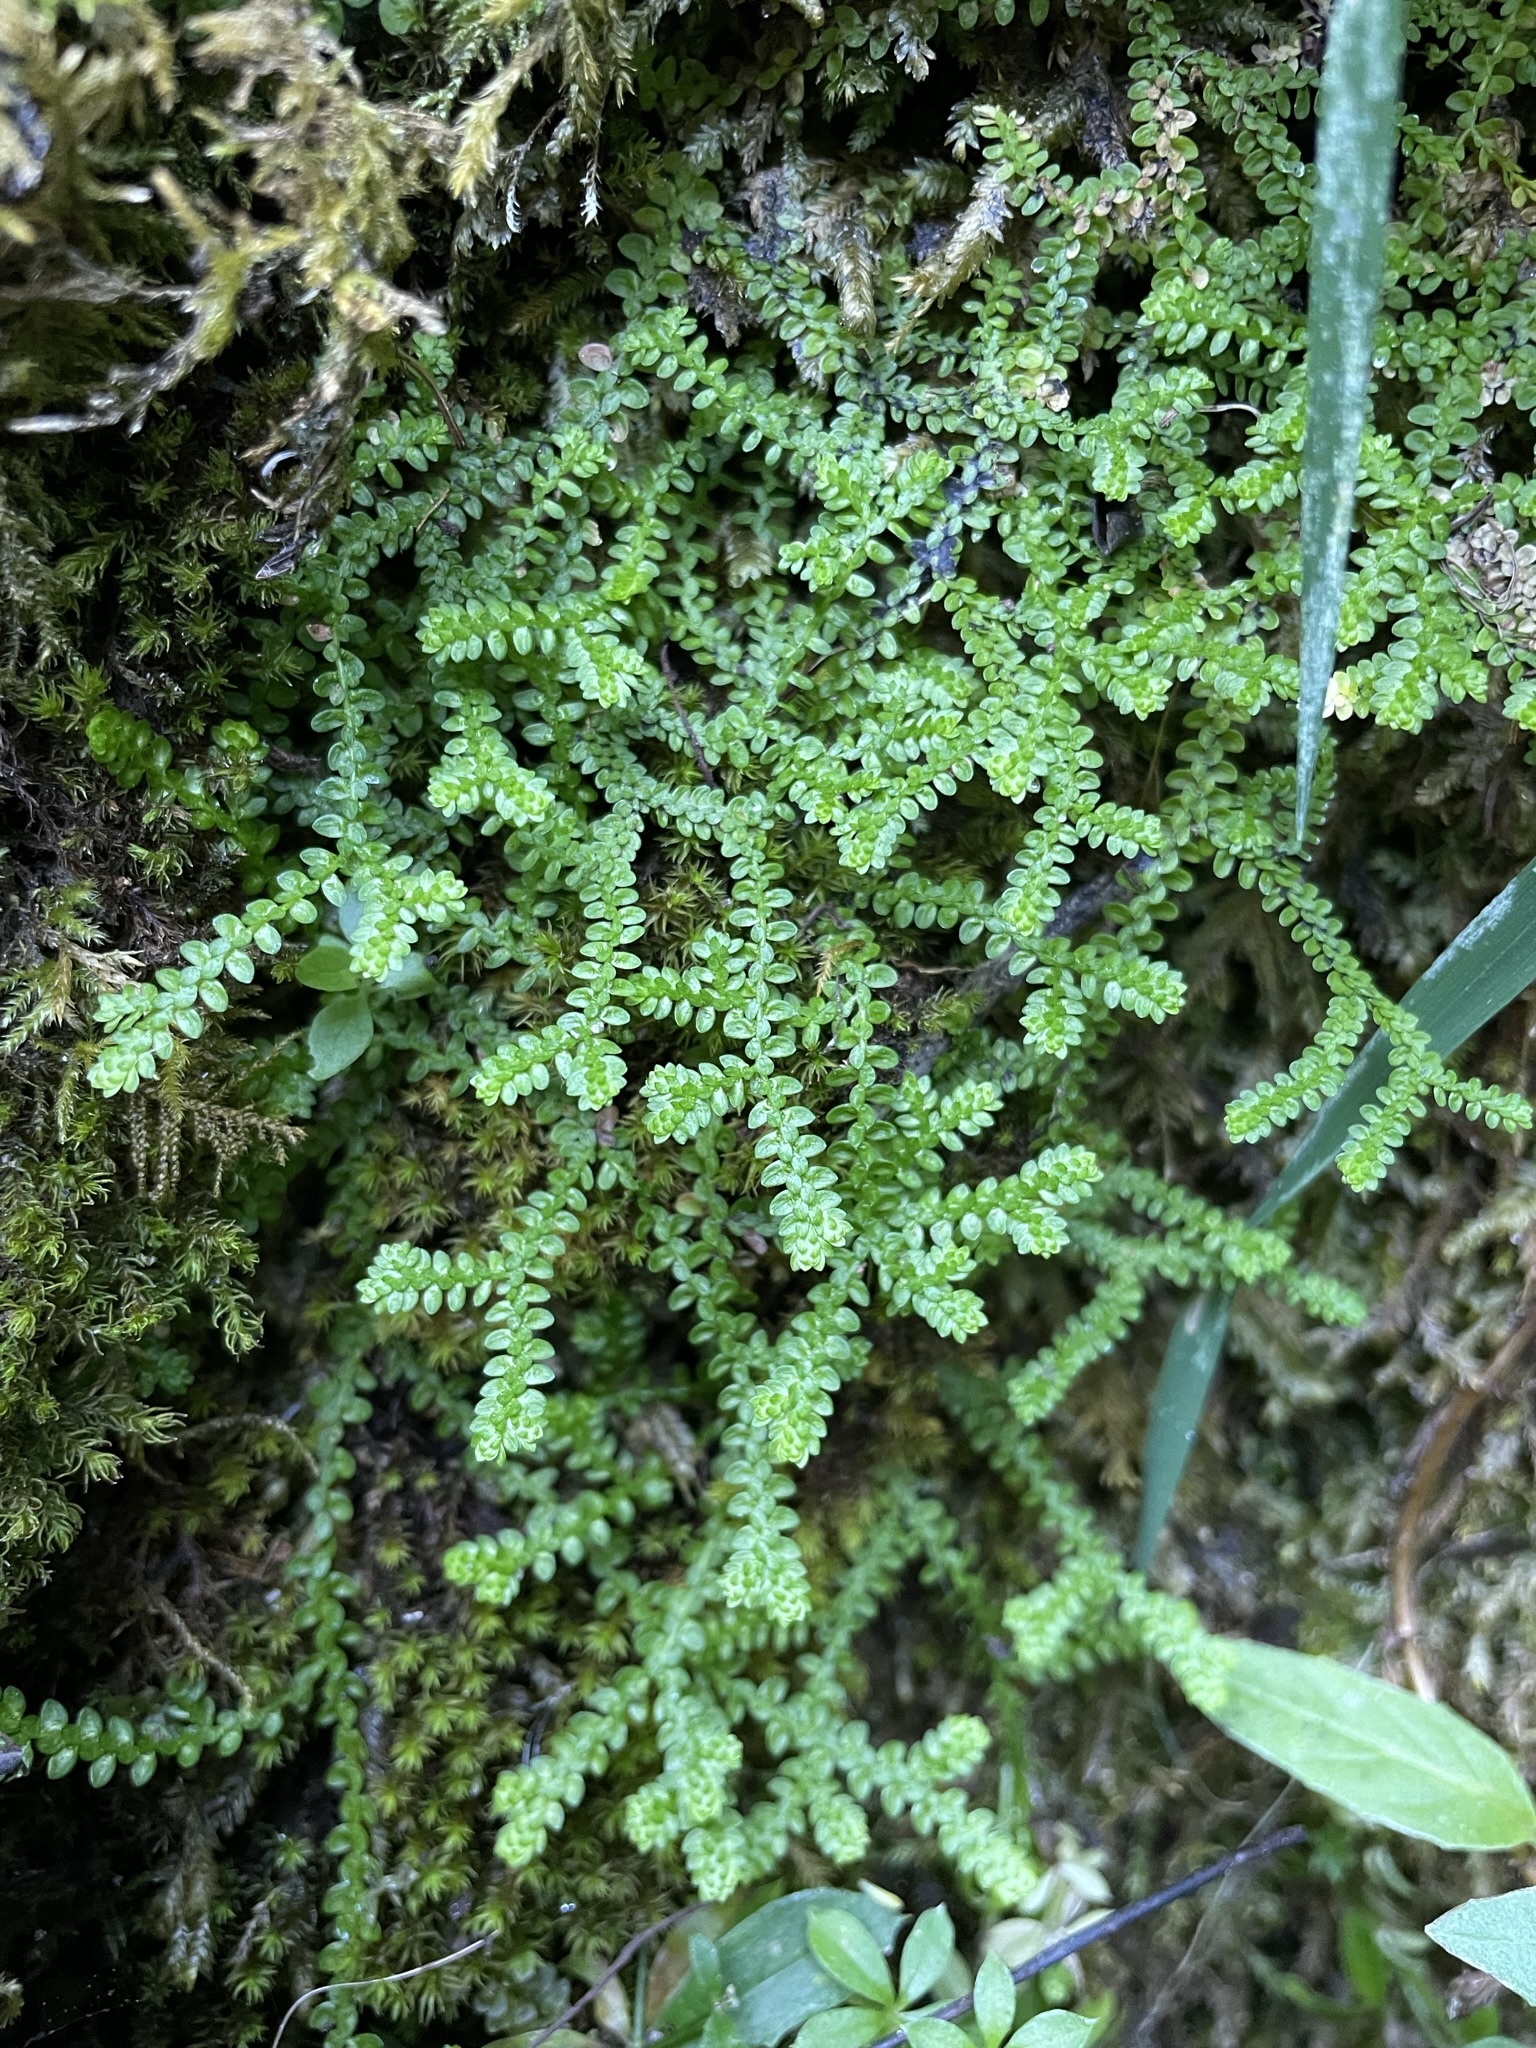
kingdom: Plantae
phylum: Tracheophyta
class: Lycopodiopsida
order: Selaginellales
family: Selaginellaceae
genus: Selaginella
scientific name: Selaginella douglasii
